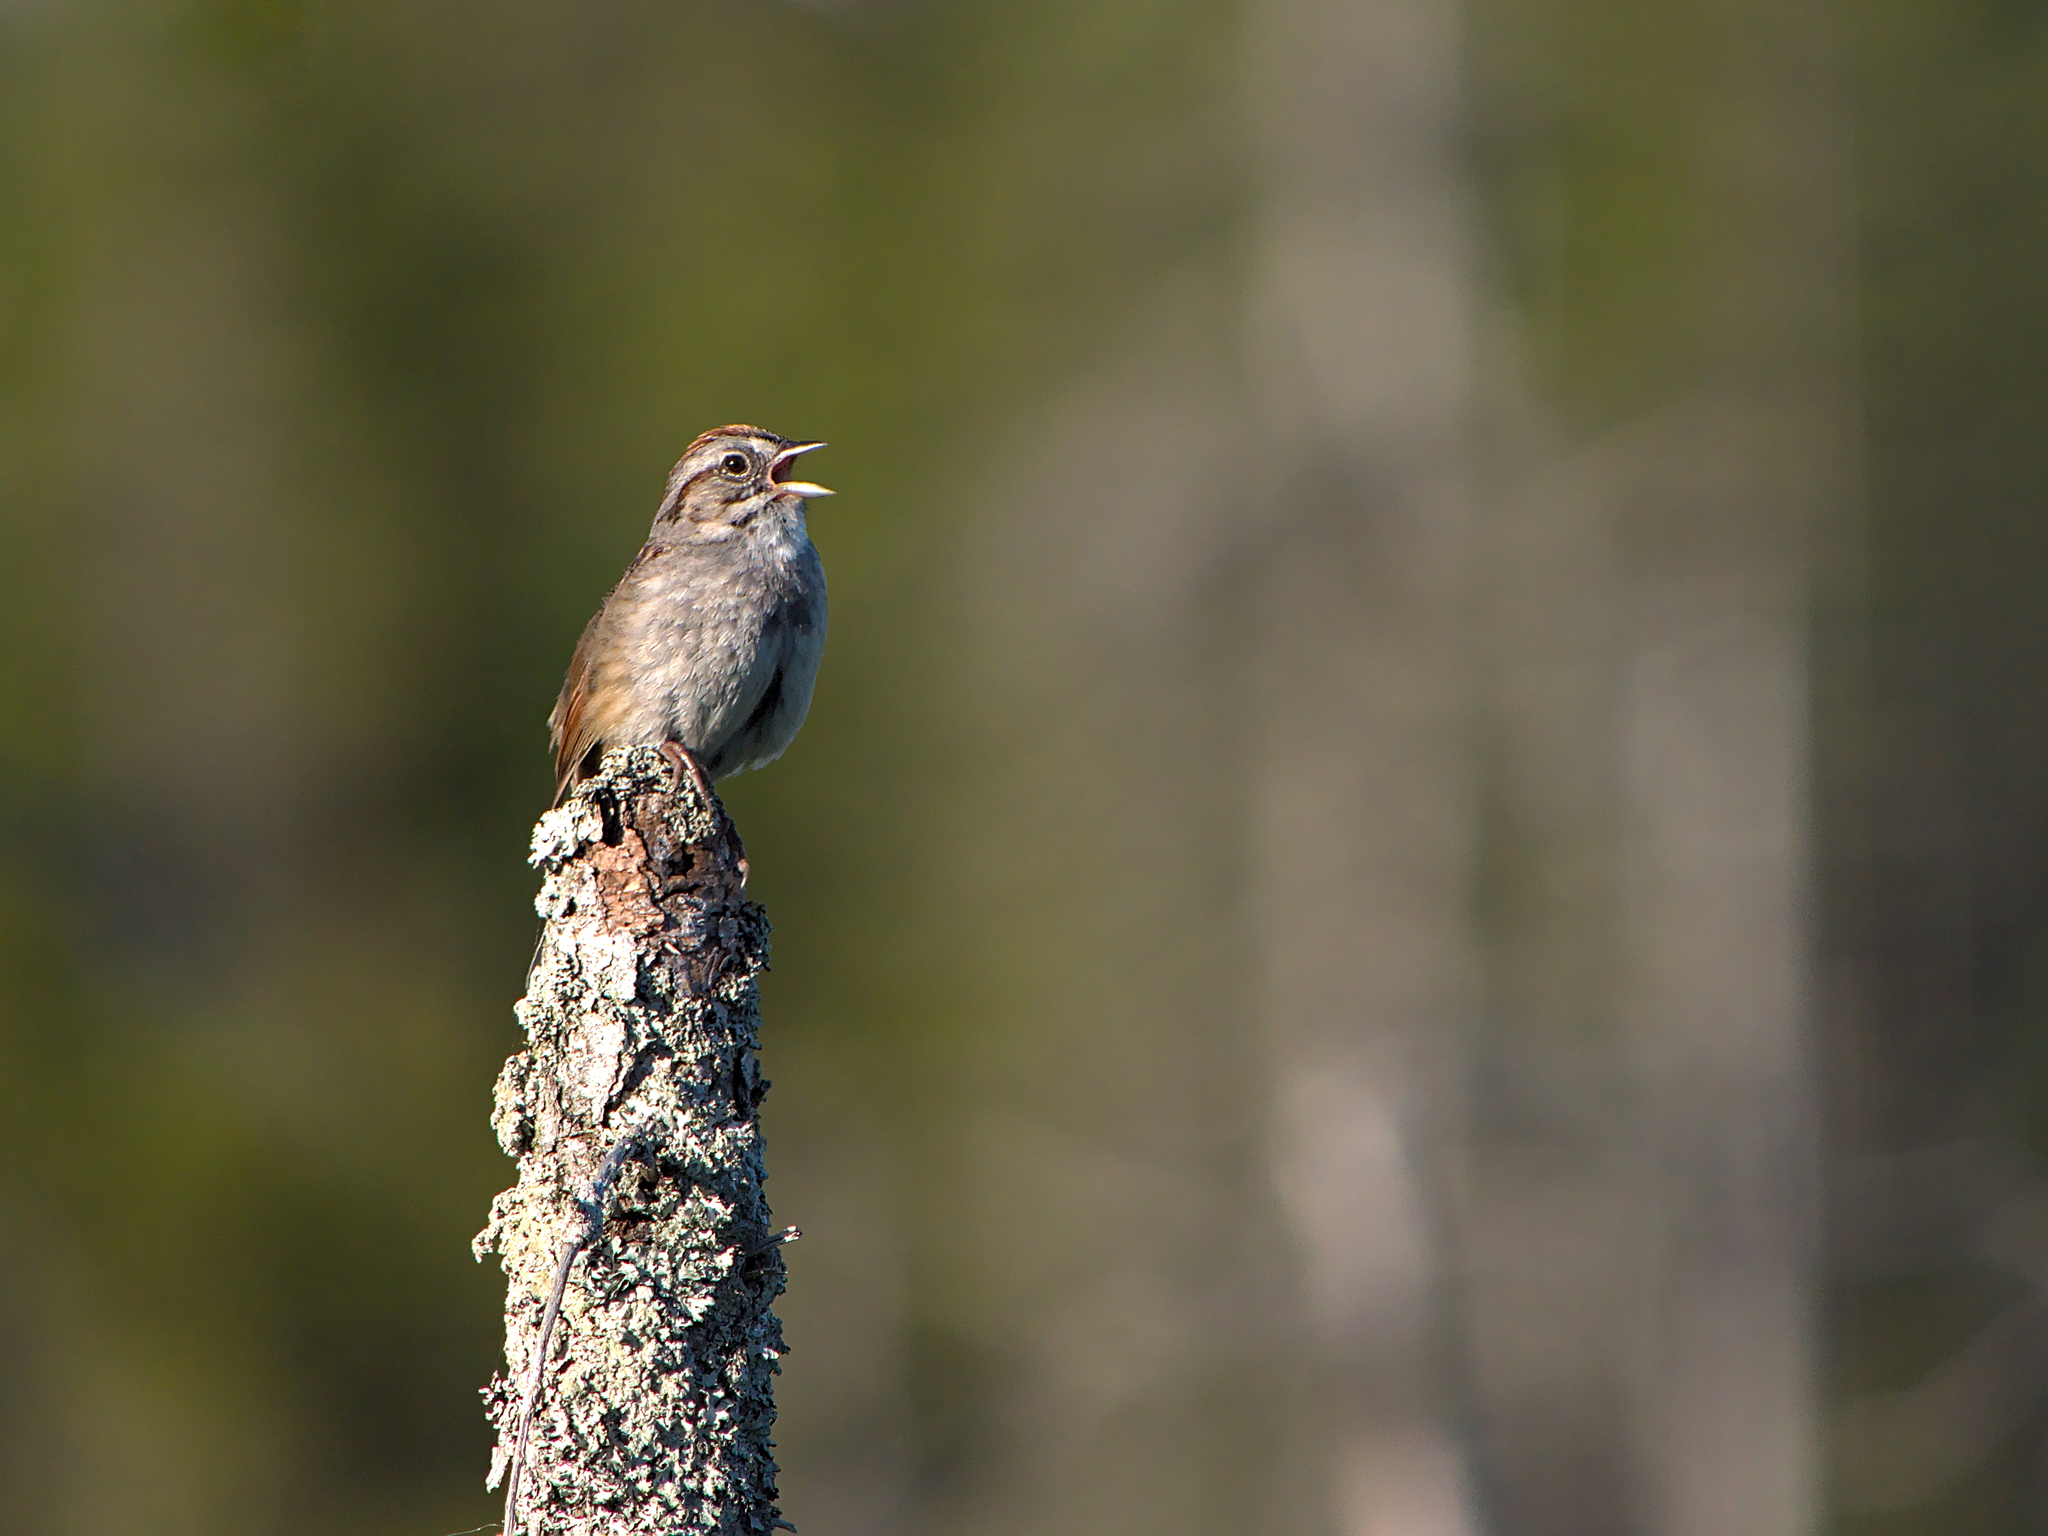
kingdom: Animalia
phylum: Chordata
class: Aves
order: Passeriformes
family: Passerellidae
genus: Melospiza
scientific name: Melospiza georgiana
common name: Swamp sparrow
